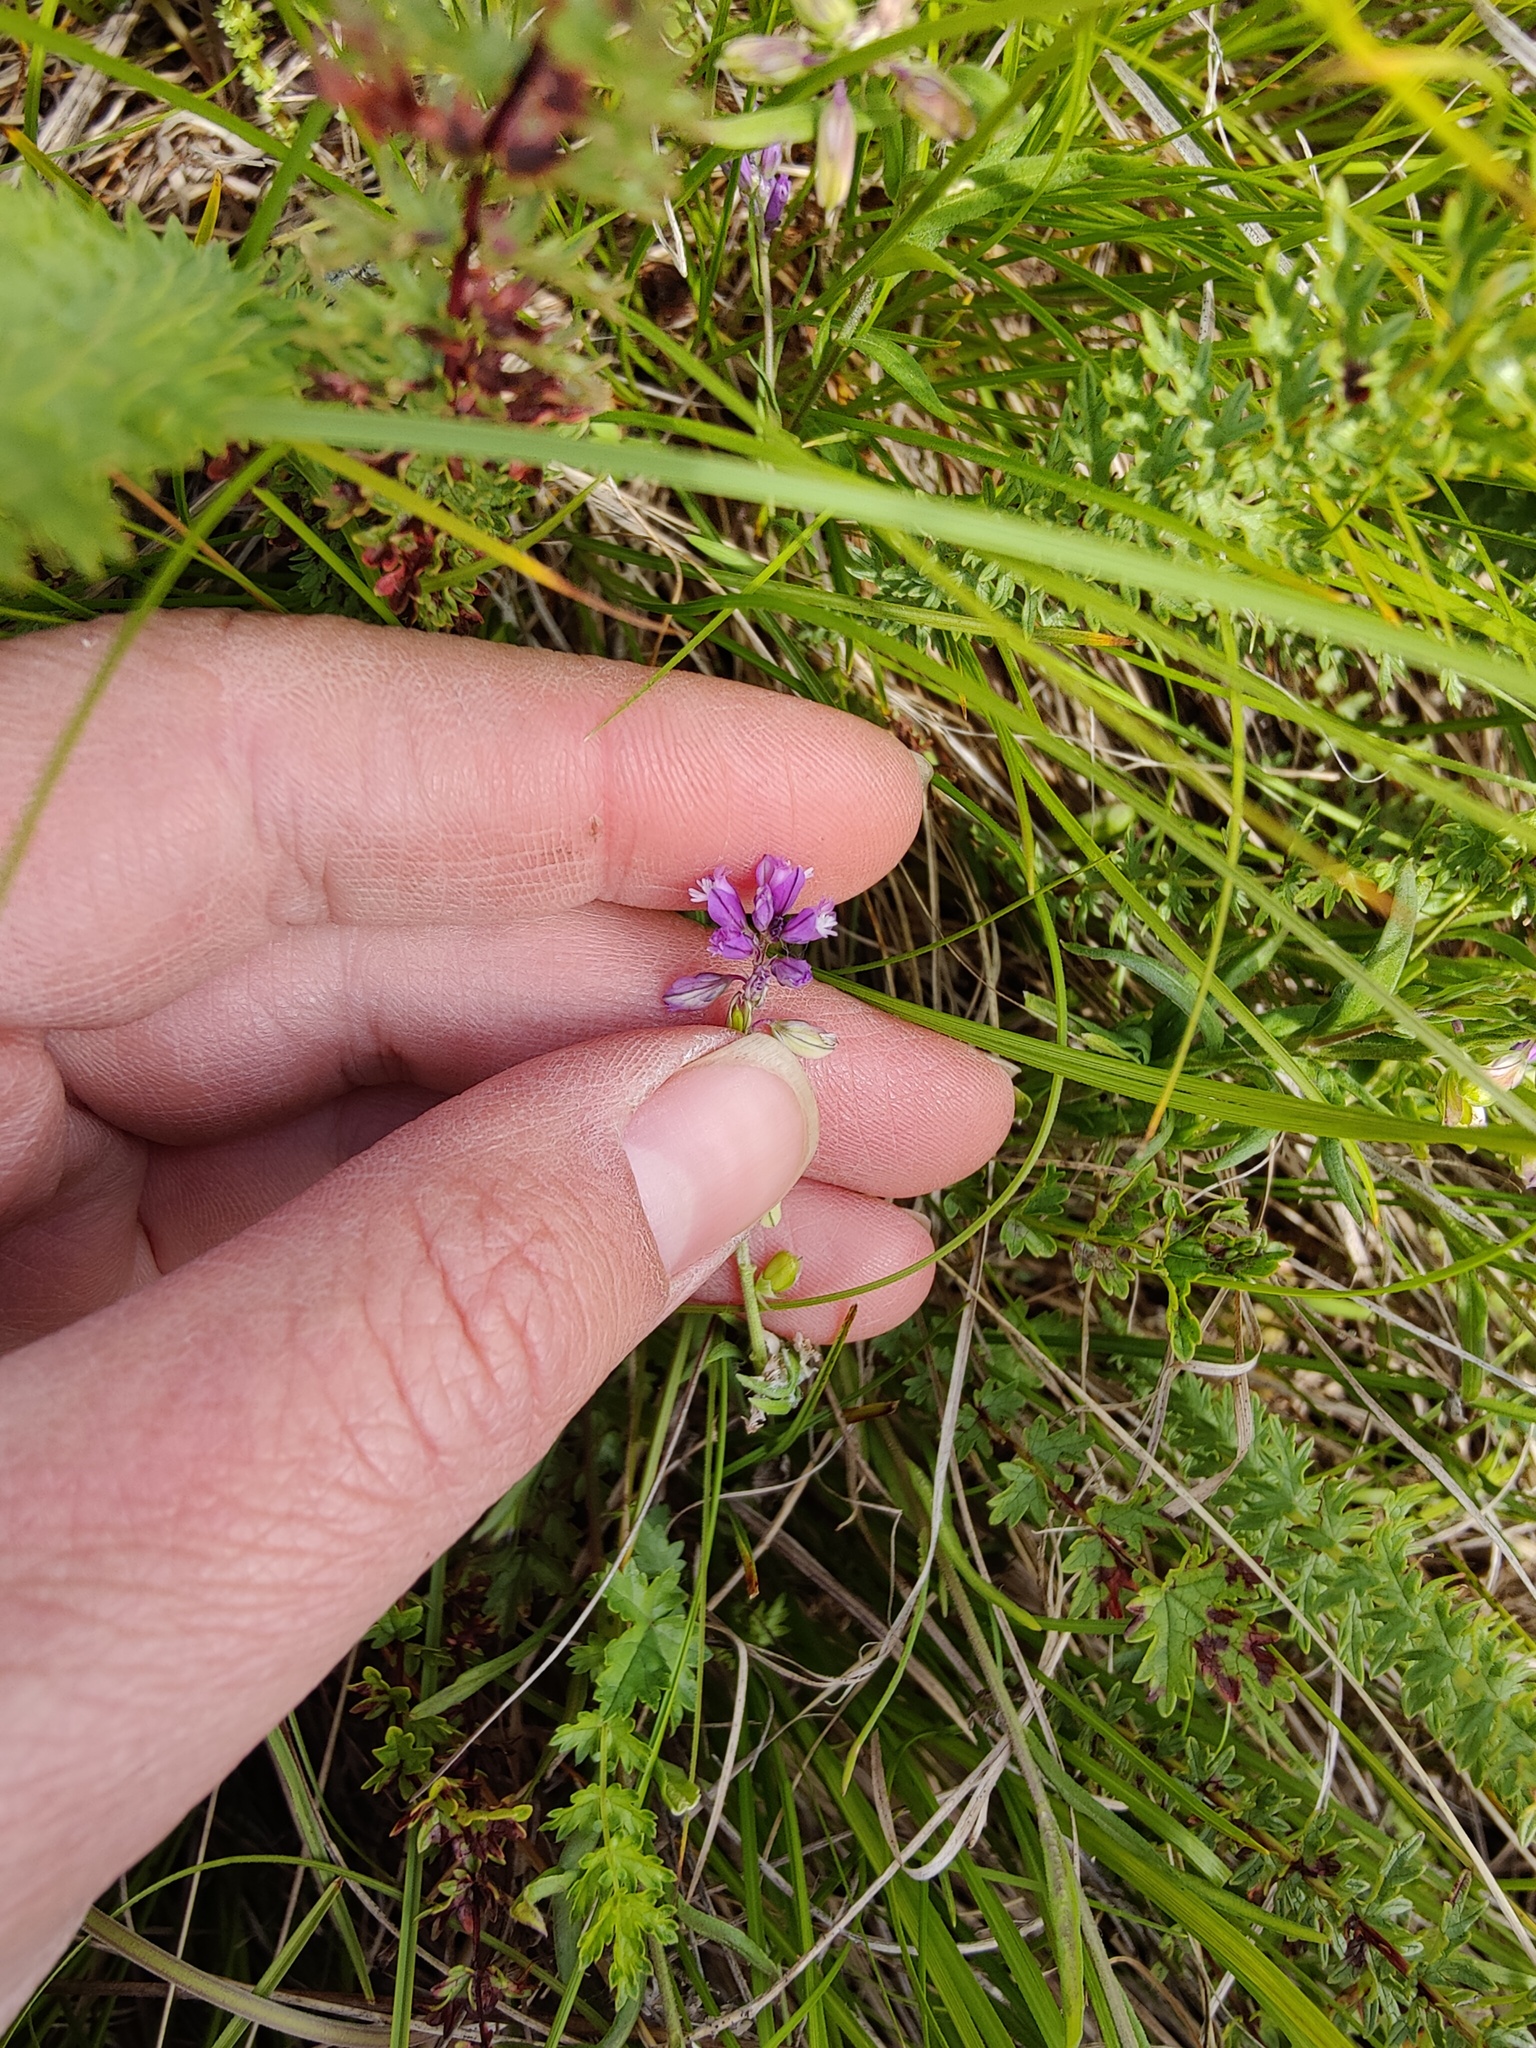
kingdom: Plantae
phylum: Tracheophyta
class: Magnoliopsida
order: Fabales
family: Polygalaceae
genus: Polygala
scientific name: Polygala comosa
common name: Tufted milkwort
